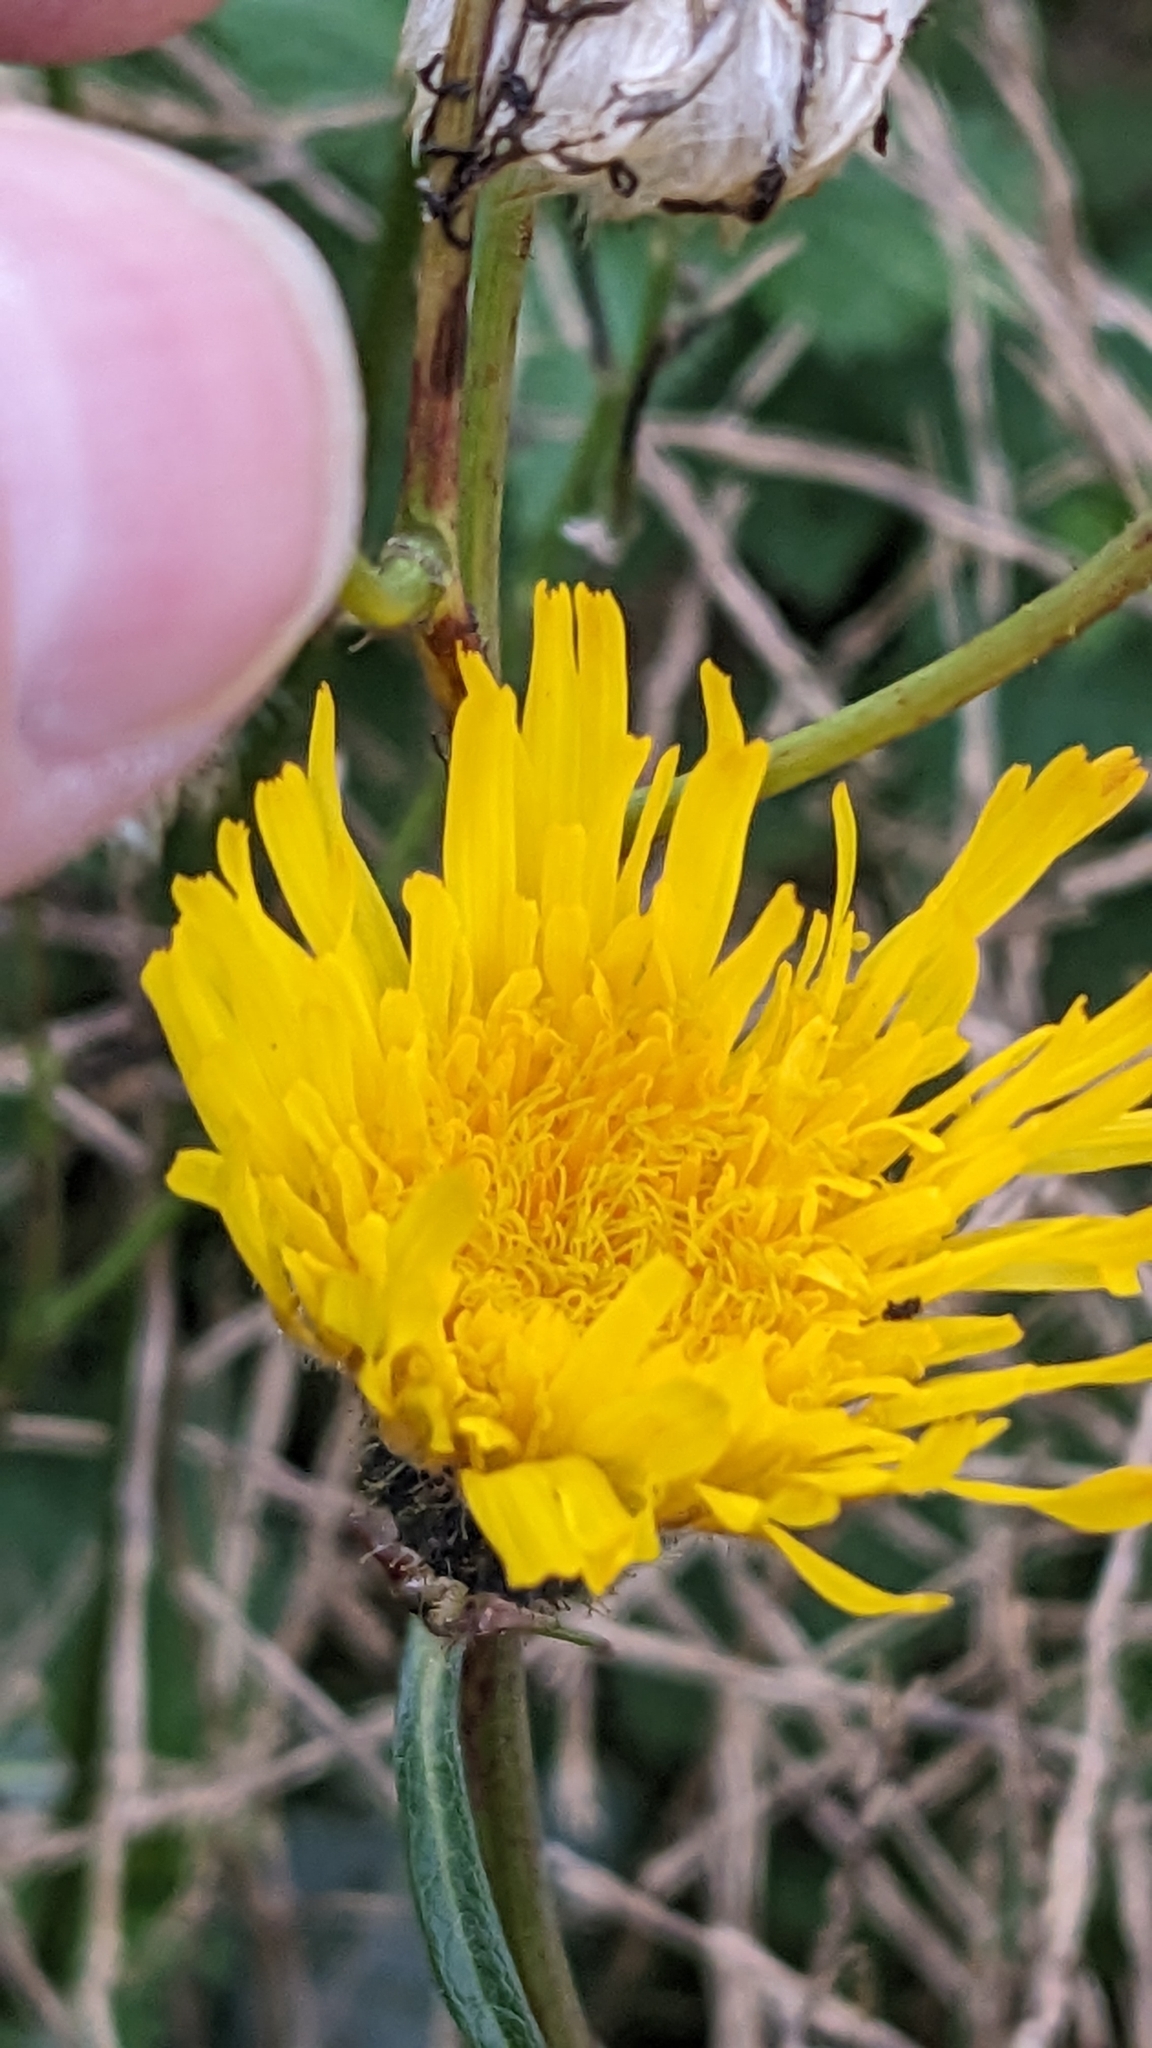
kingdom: Plantae
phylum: Tracheophyta
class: Magnoliopsida
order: Asterales
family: Asteraceae
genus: Sonchus
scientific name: Sonchus arvensis
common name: Perennial sow-thistle
